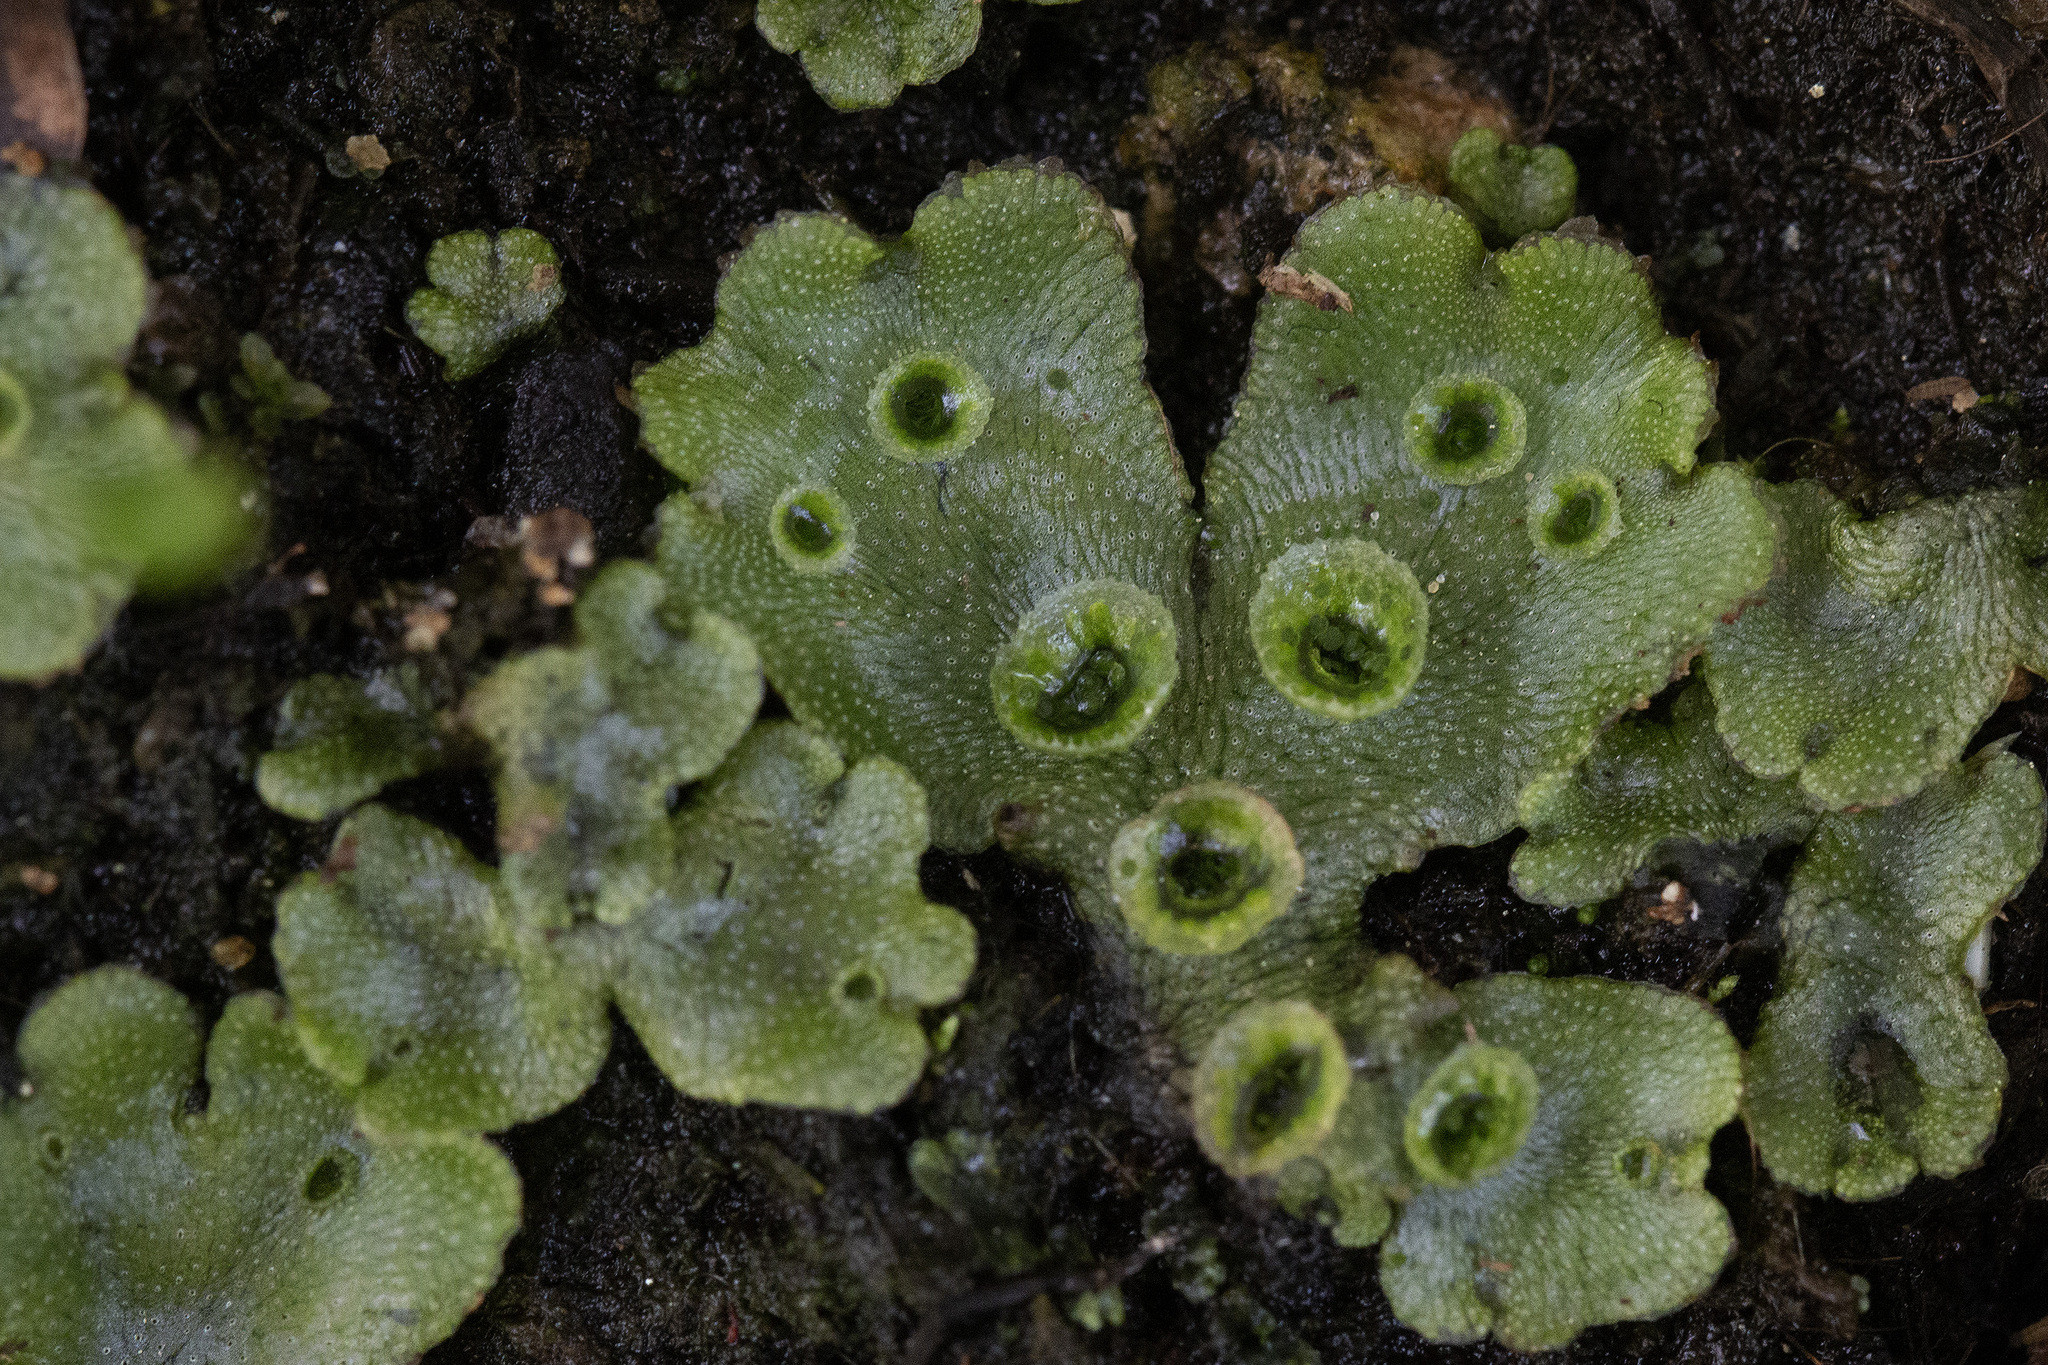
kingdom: Plantae
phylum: Marchantiophyta
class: Marchantiopsida
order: Marchantiales
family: Marchantiaceae
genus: Marchantia
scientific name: Marchantia polymorpha
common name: Common liverwort
